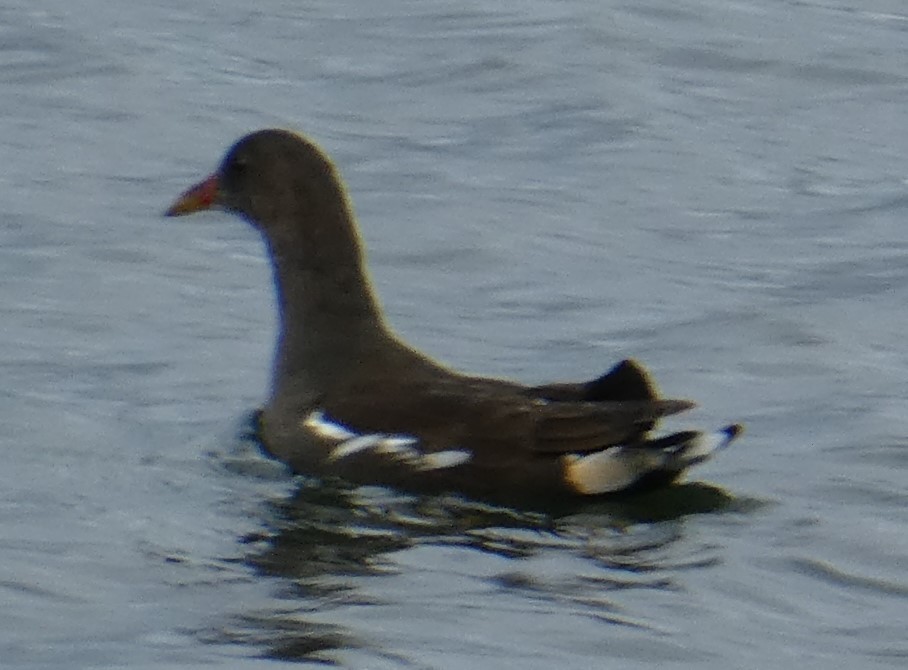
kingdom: Animalia
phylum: Chordata
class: Aves
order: Gruiformes
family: Rallidae
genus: Gallinula
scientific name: Gallinula chloropus
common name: Common moorhen
